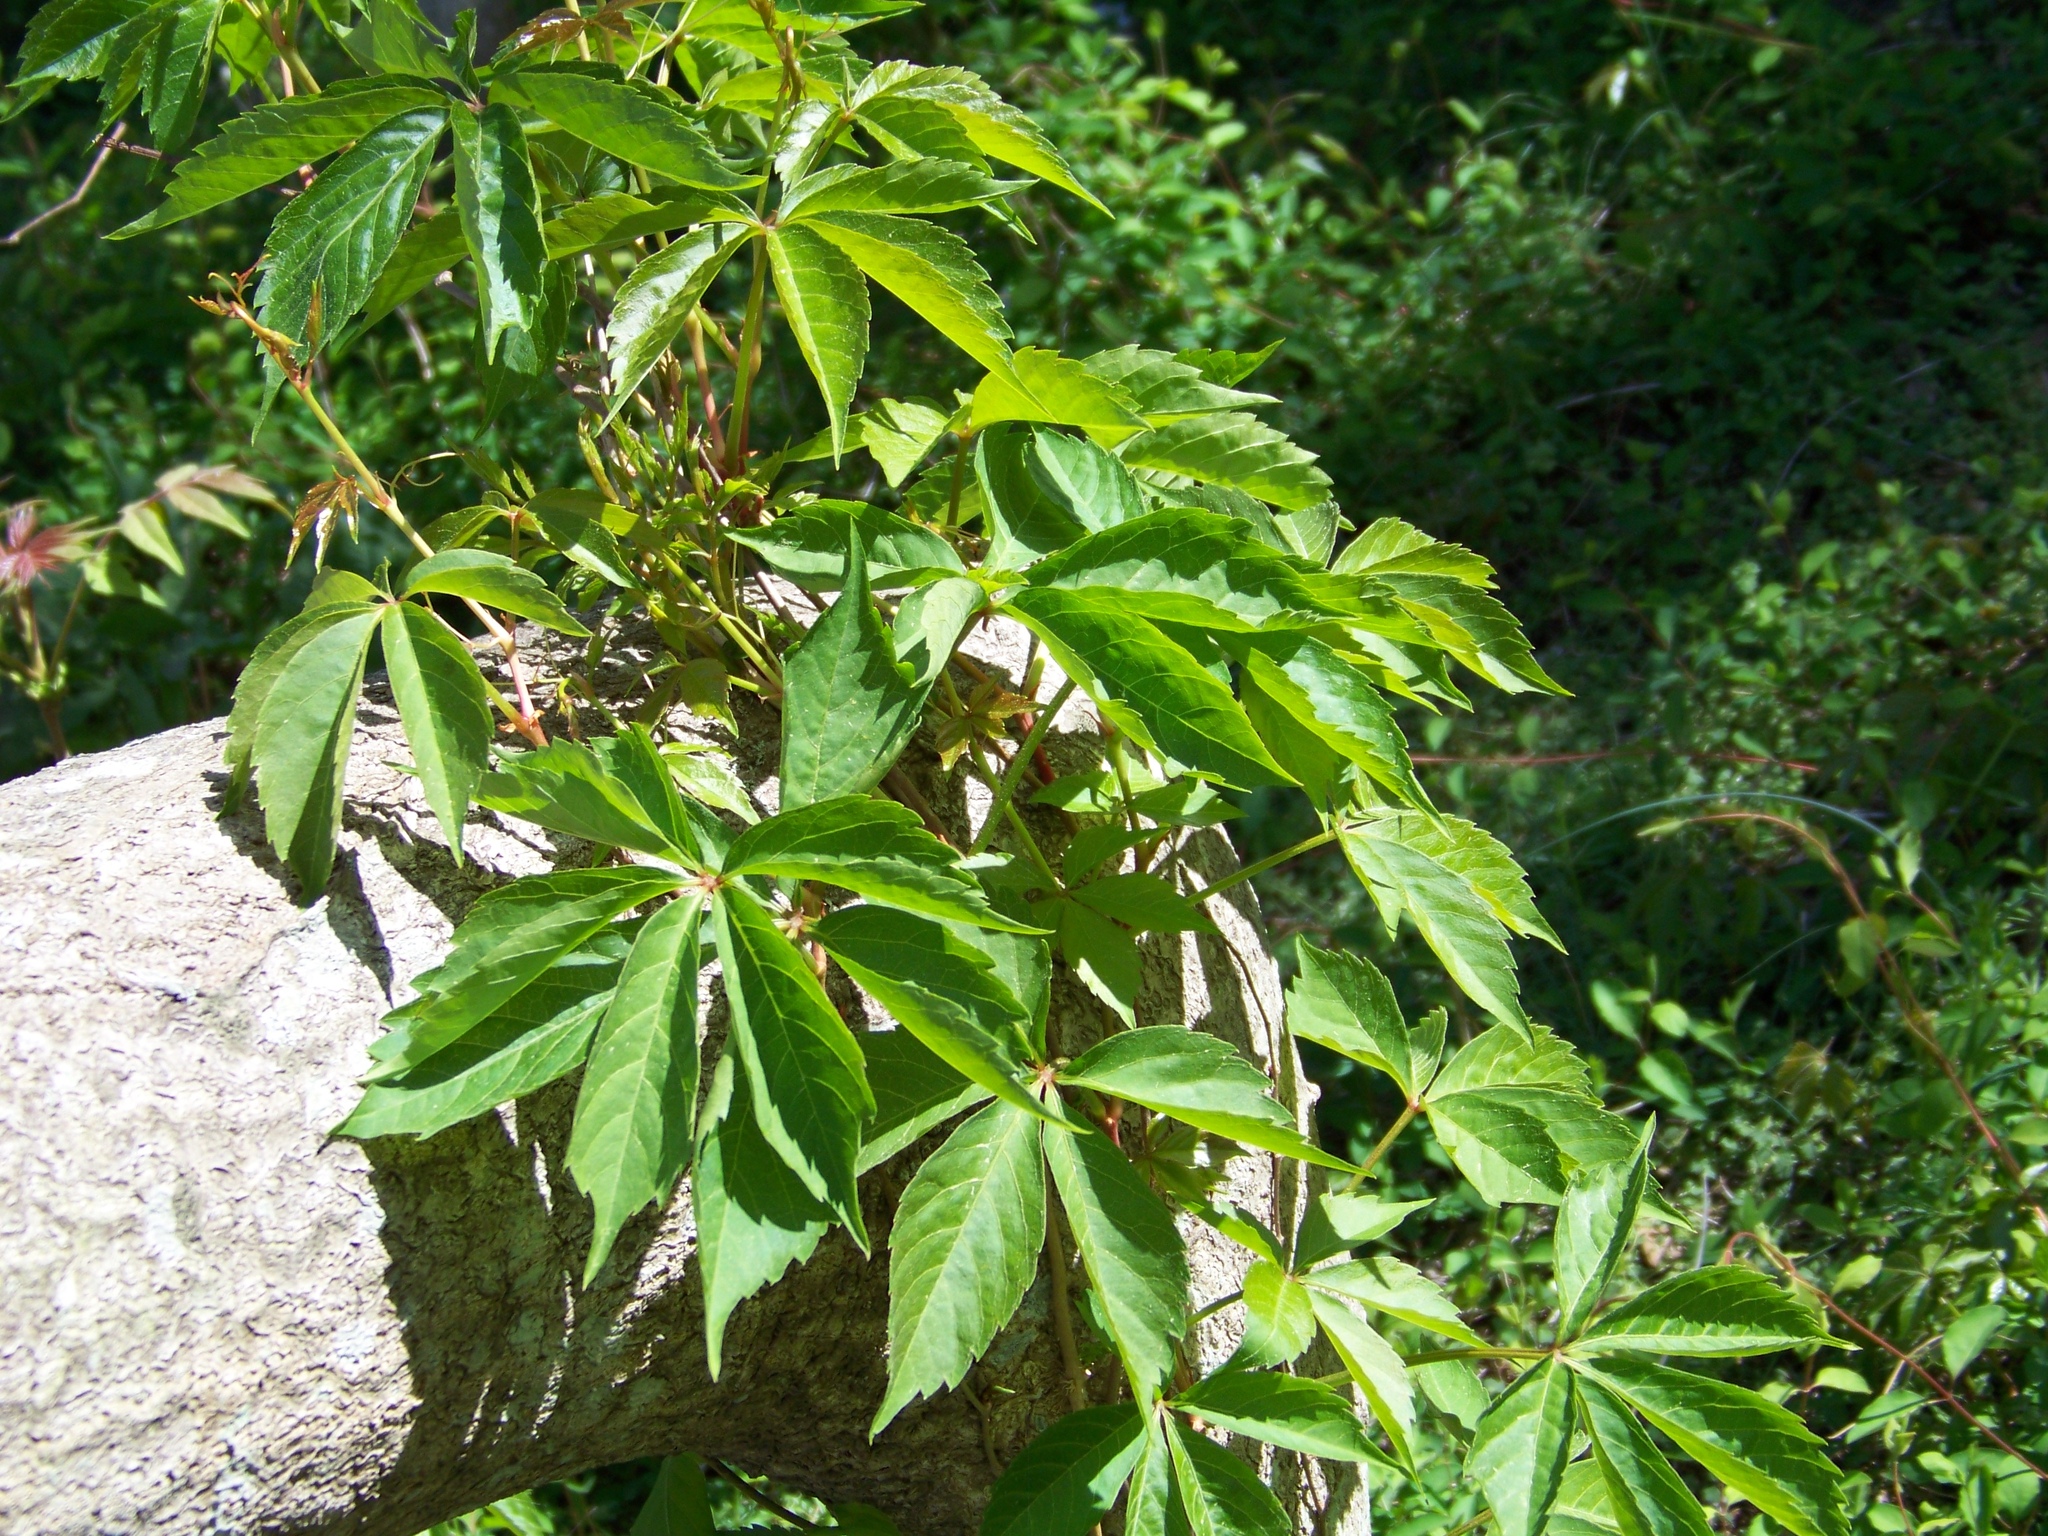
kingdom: Plantae
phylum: Tracheophyta
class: Magnoliopsida
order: Vitales
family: Vitaceae
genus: Parthenocissus
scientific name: Parthenocissus quinquefolia
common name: Virginia-creeper
